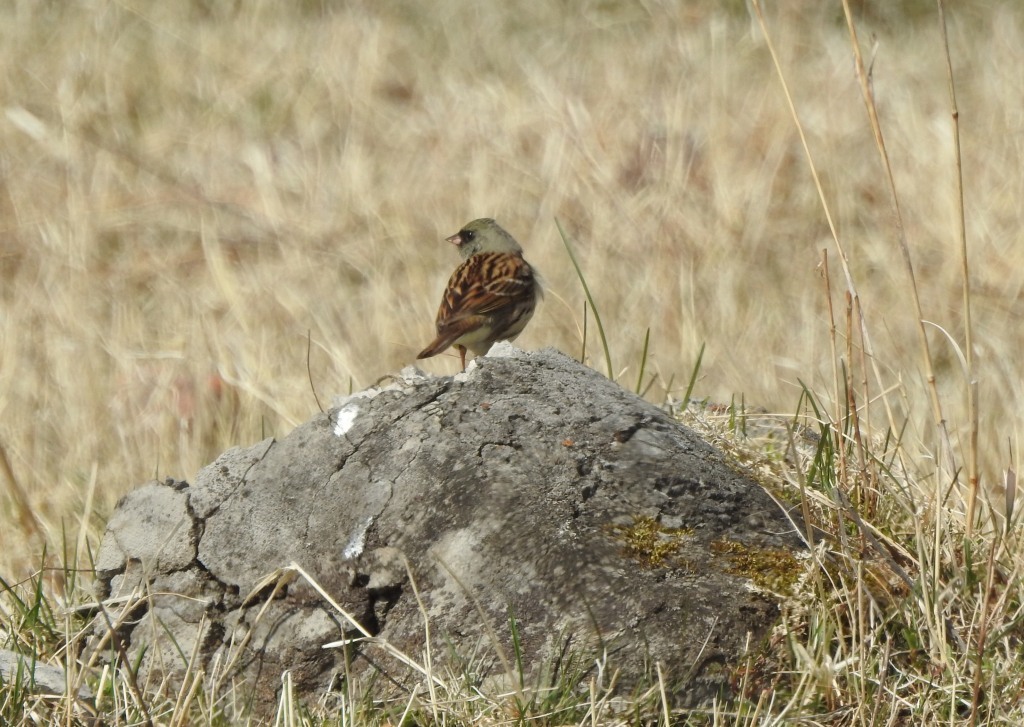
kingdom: Animalia
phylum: Chordata
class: Aves
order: Passeriformes
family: Emberizidae
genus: Emberiza
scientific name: Emberiza spodocephala
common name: Black-faced bunting
